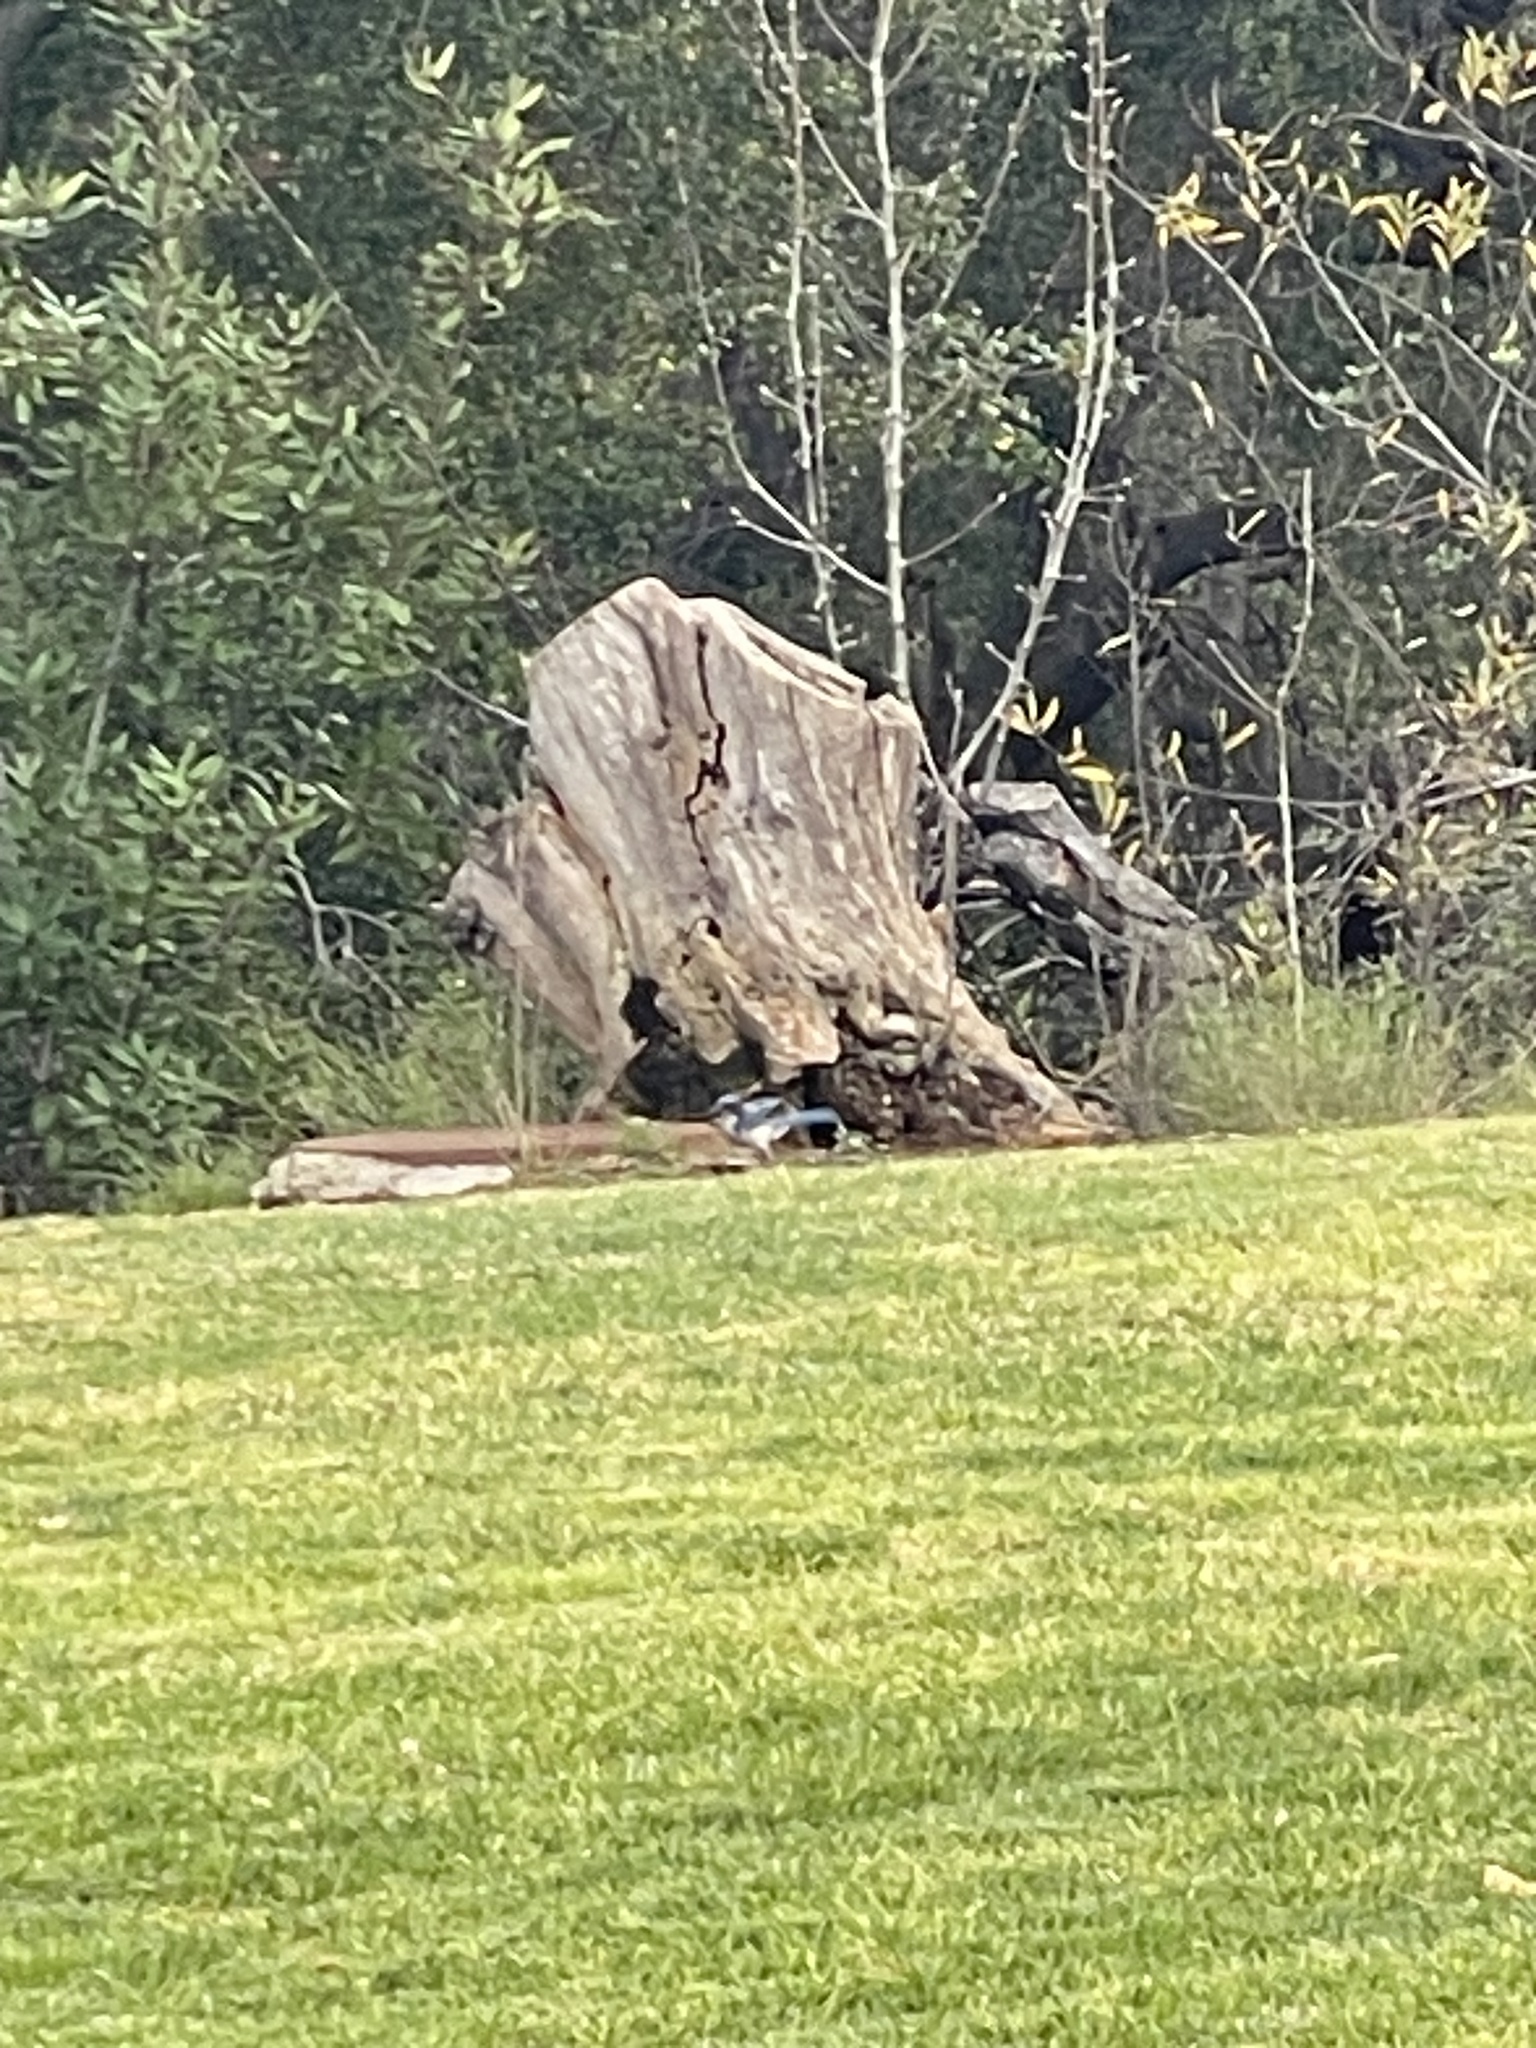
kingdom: Animalia
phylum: Chordata
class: Aves
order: Passeriformes
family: Corvidae
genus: Aphelocoma
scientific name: Aphelocoma californica
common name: California scrub-jay
